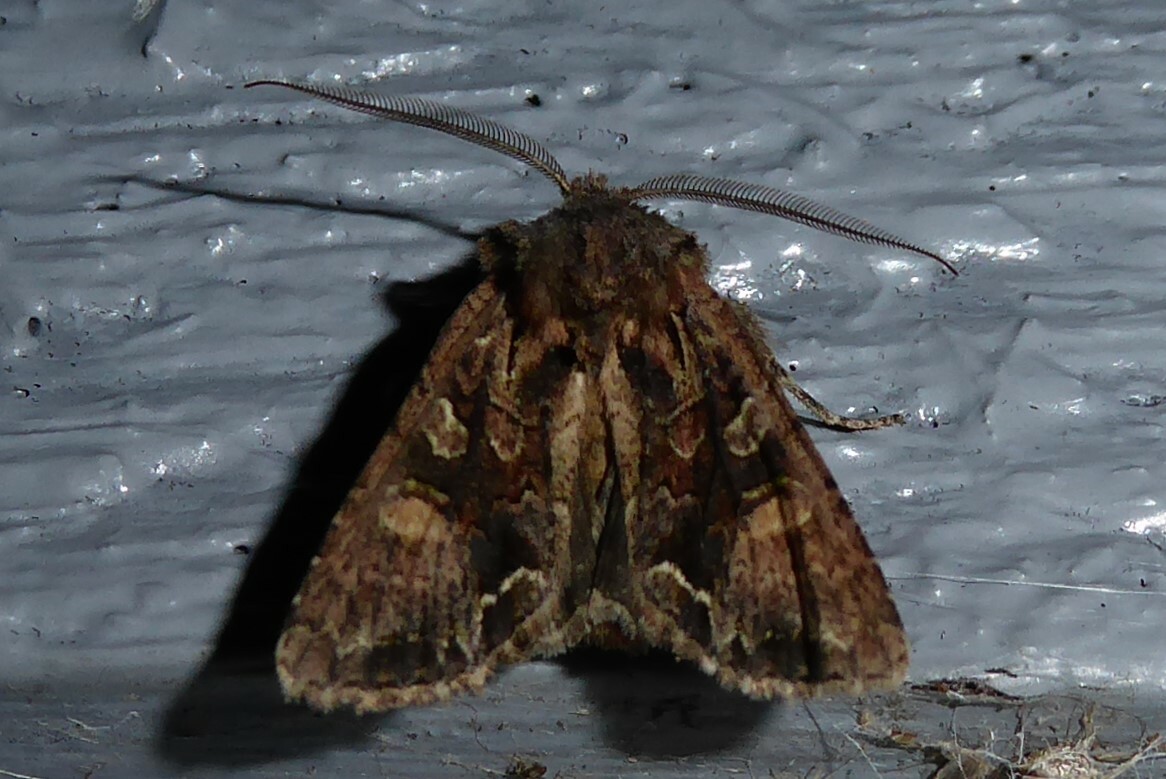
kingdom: Animalia
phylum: Arthropoda
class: Insecta
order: Lepidoptera
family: Noctuidae
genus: Ichneutica
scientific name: Ichneutica skelloni
